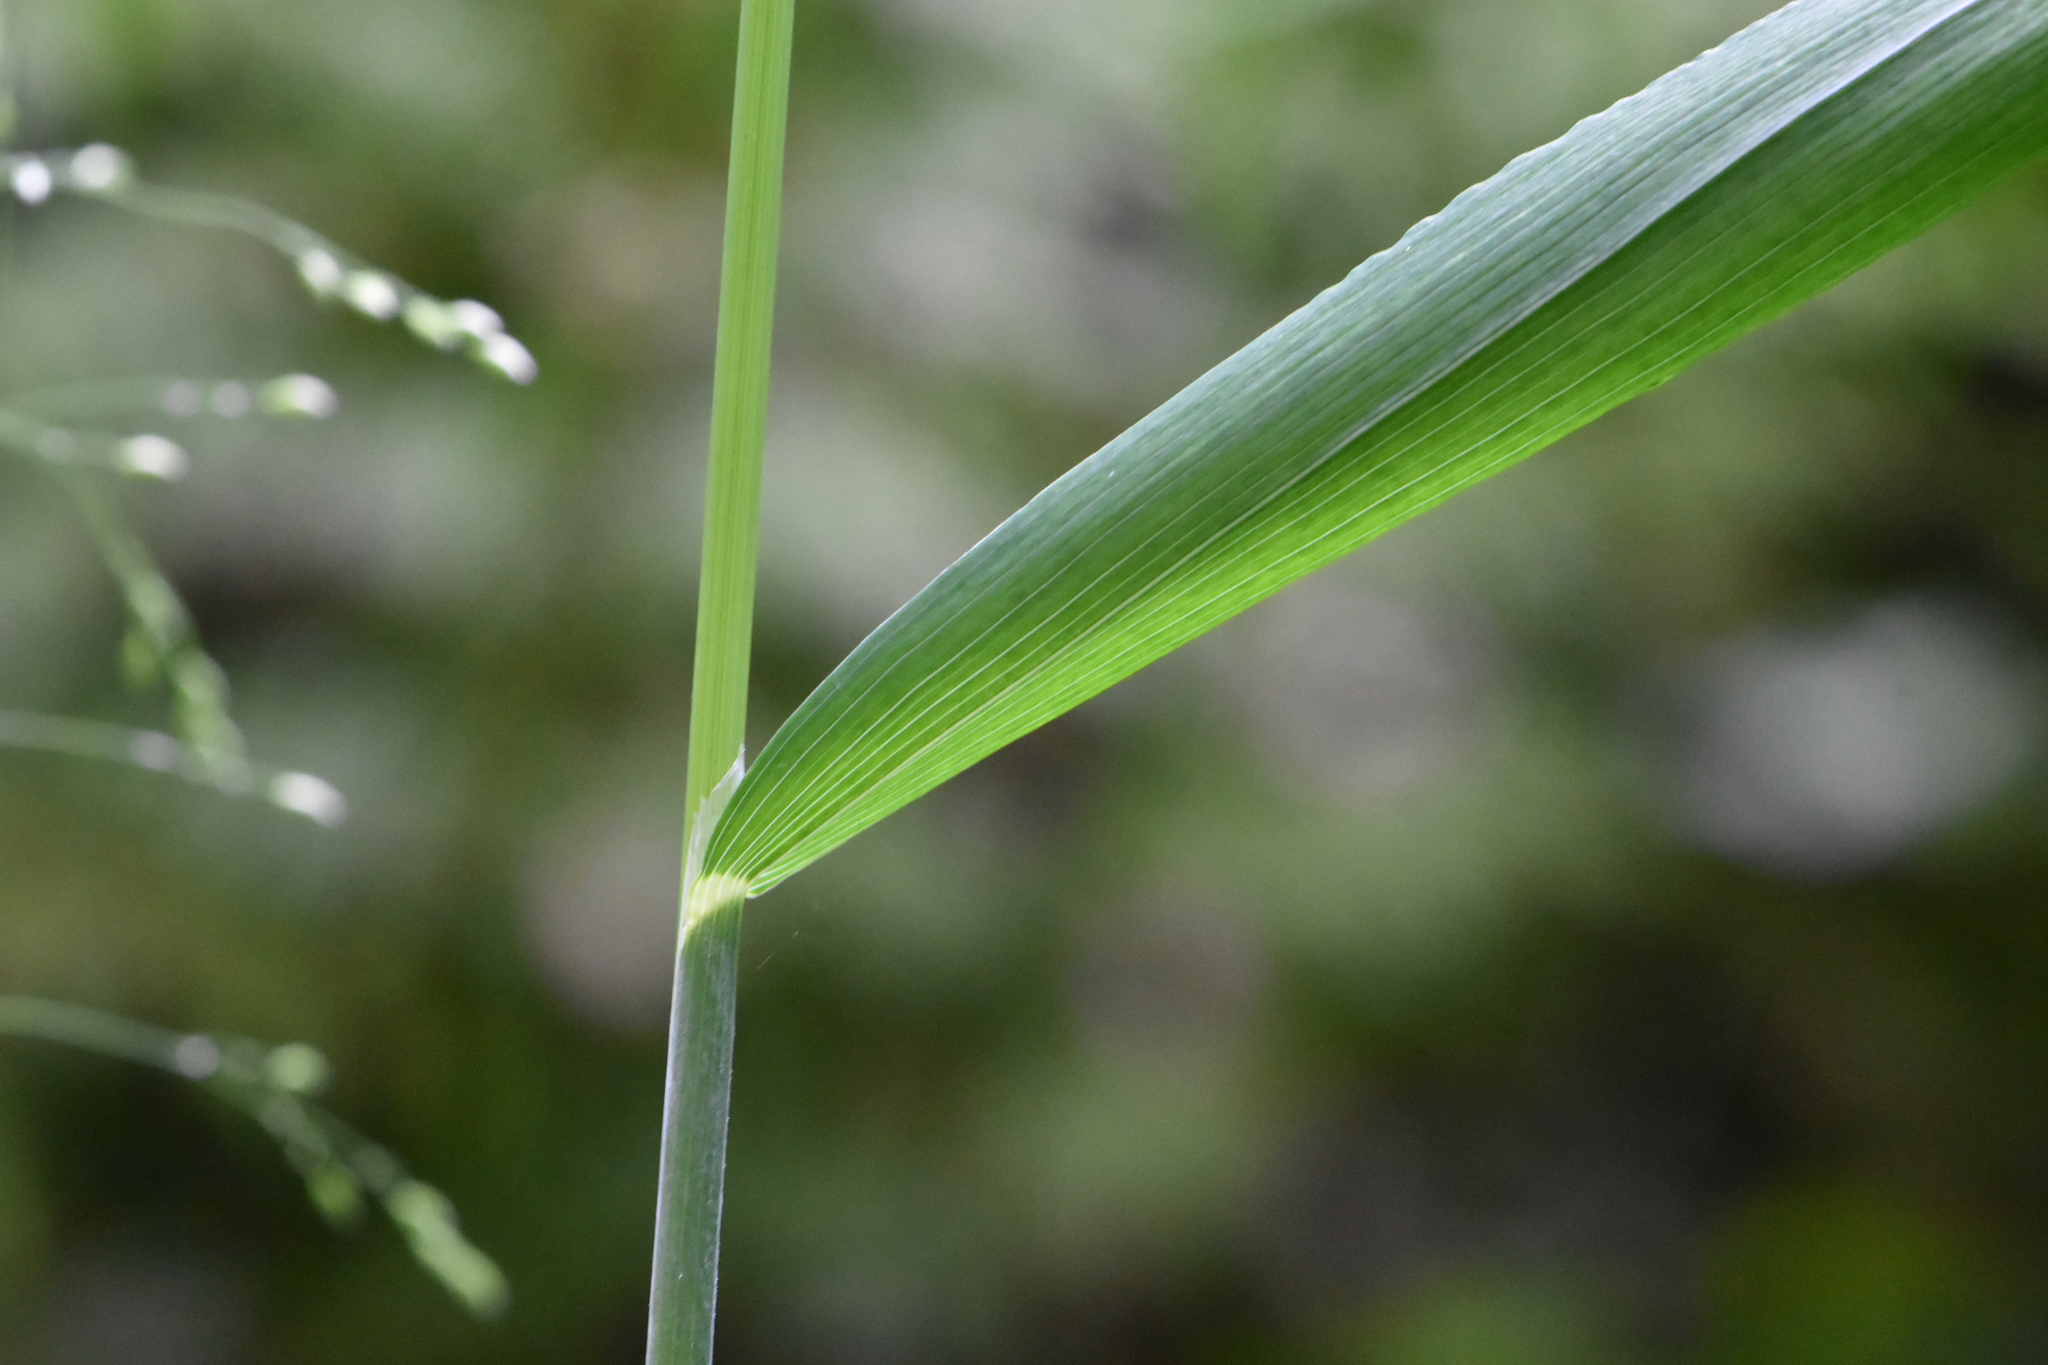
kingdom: Plantae
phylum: Tracheophyta
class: Liliopsida
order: Poales
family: Poaceae
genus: Milium
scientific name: Milium effusum
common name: Wood millet
